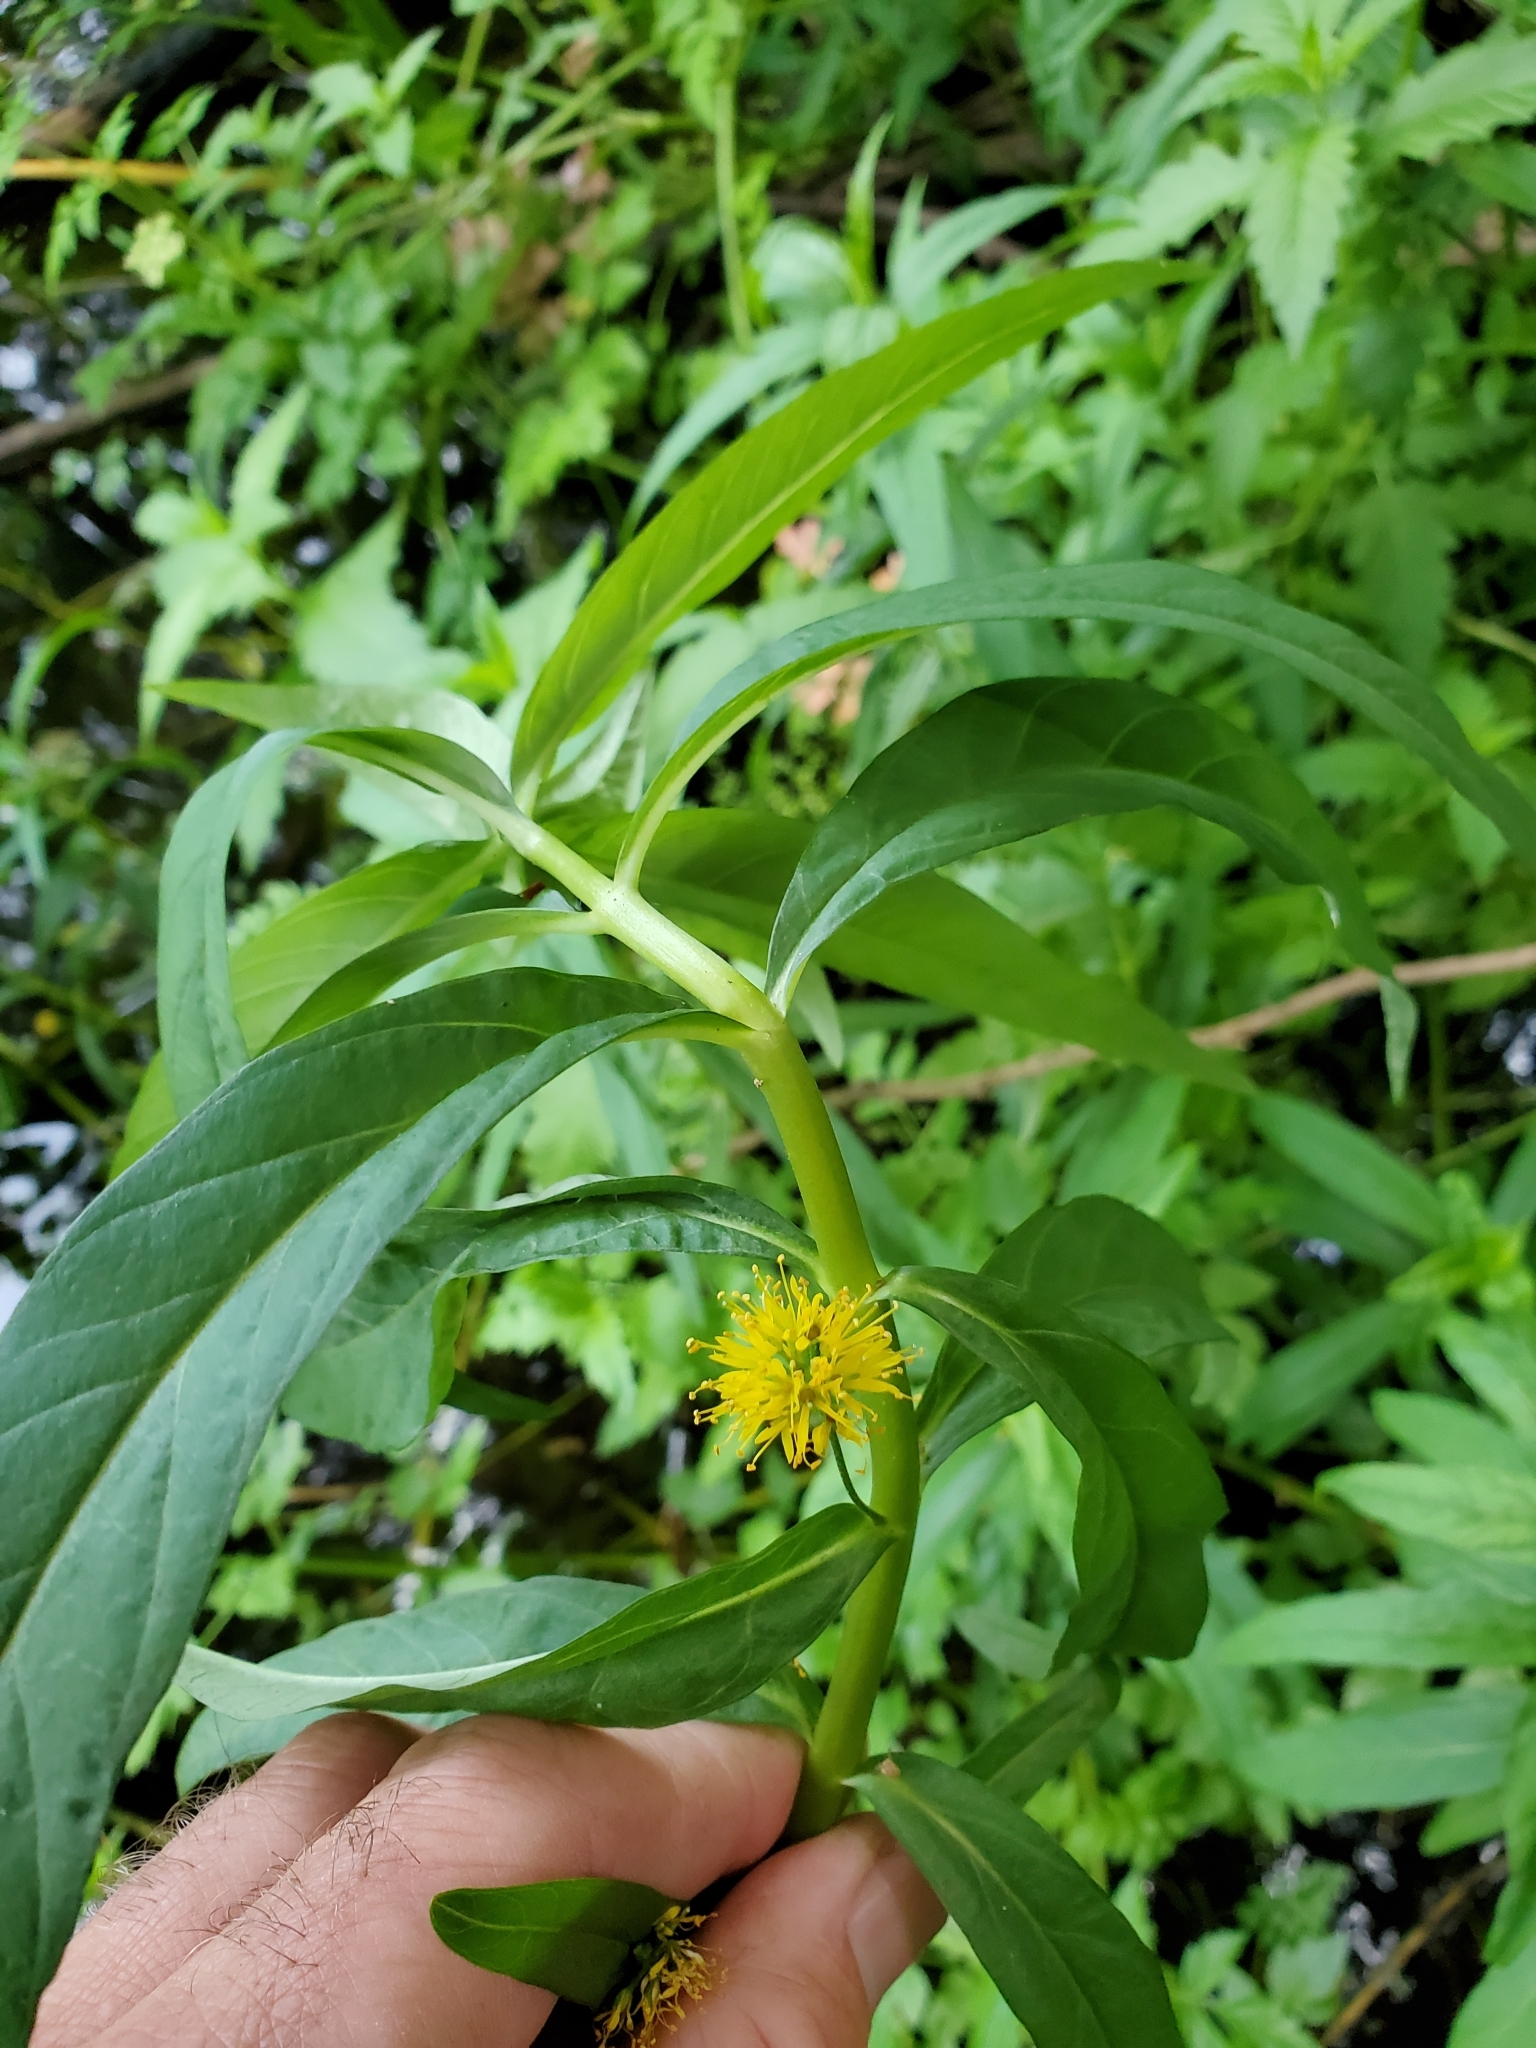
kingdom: Plantae
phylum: Tracheophyta
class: Magnoliopsida
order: Ericales
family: Primulaceae
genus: Lysimachia
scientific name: Lysimachia thyrsiflora
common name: Tufted loosestrife
